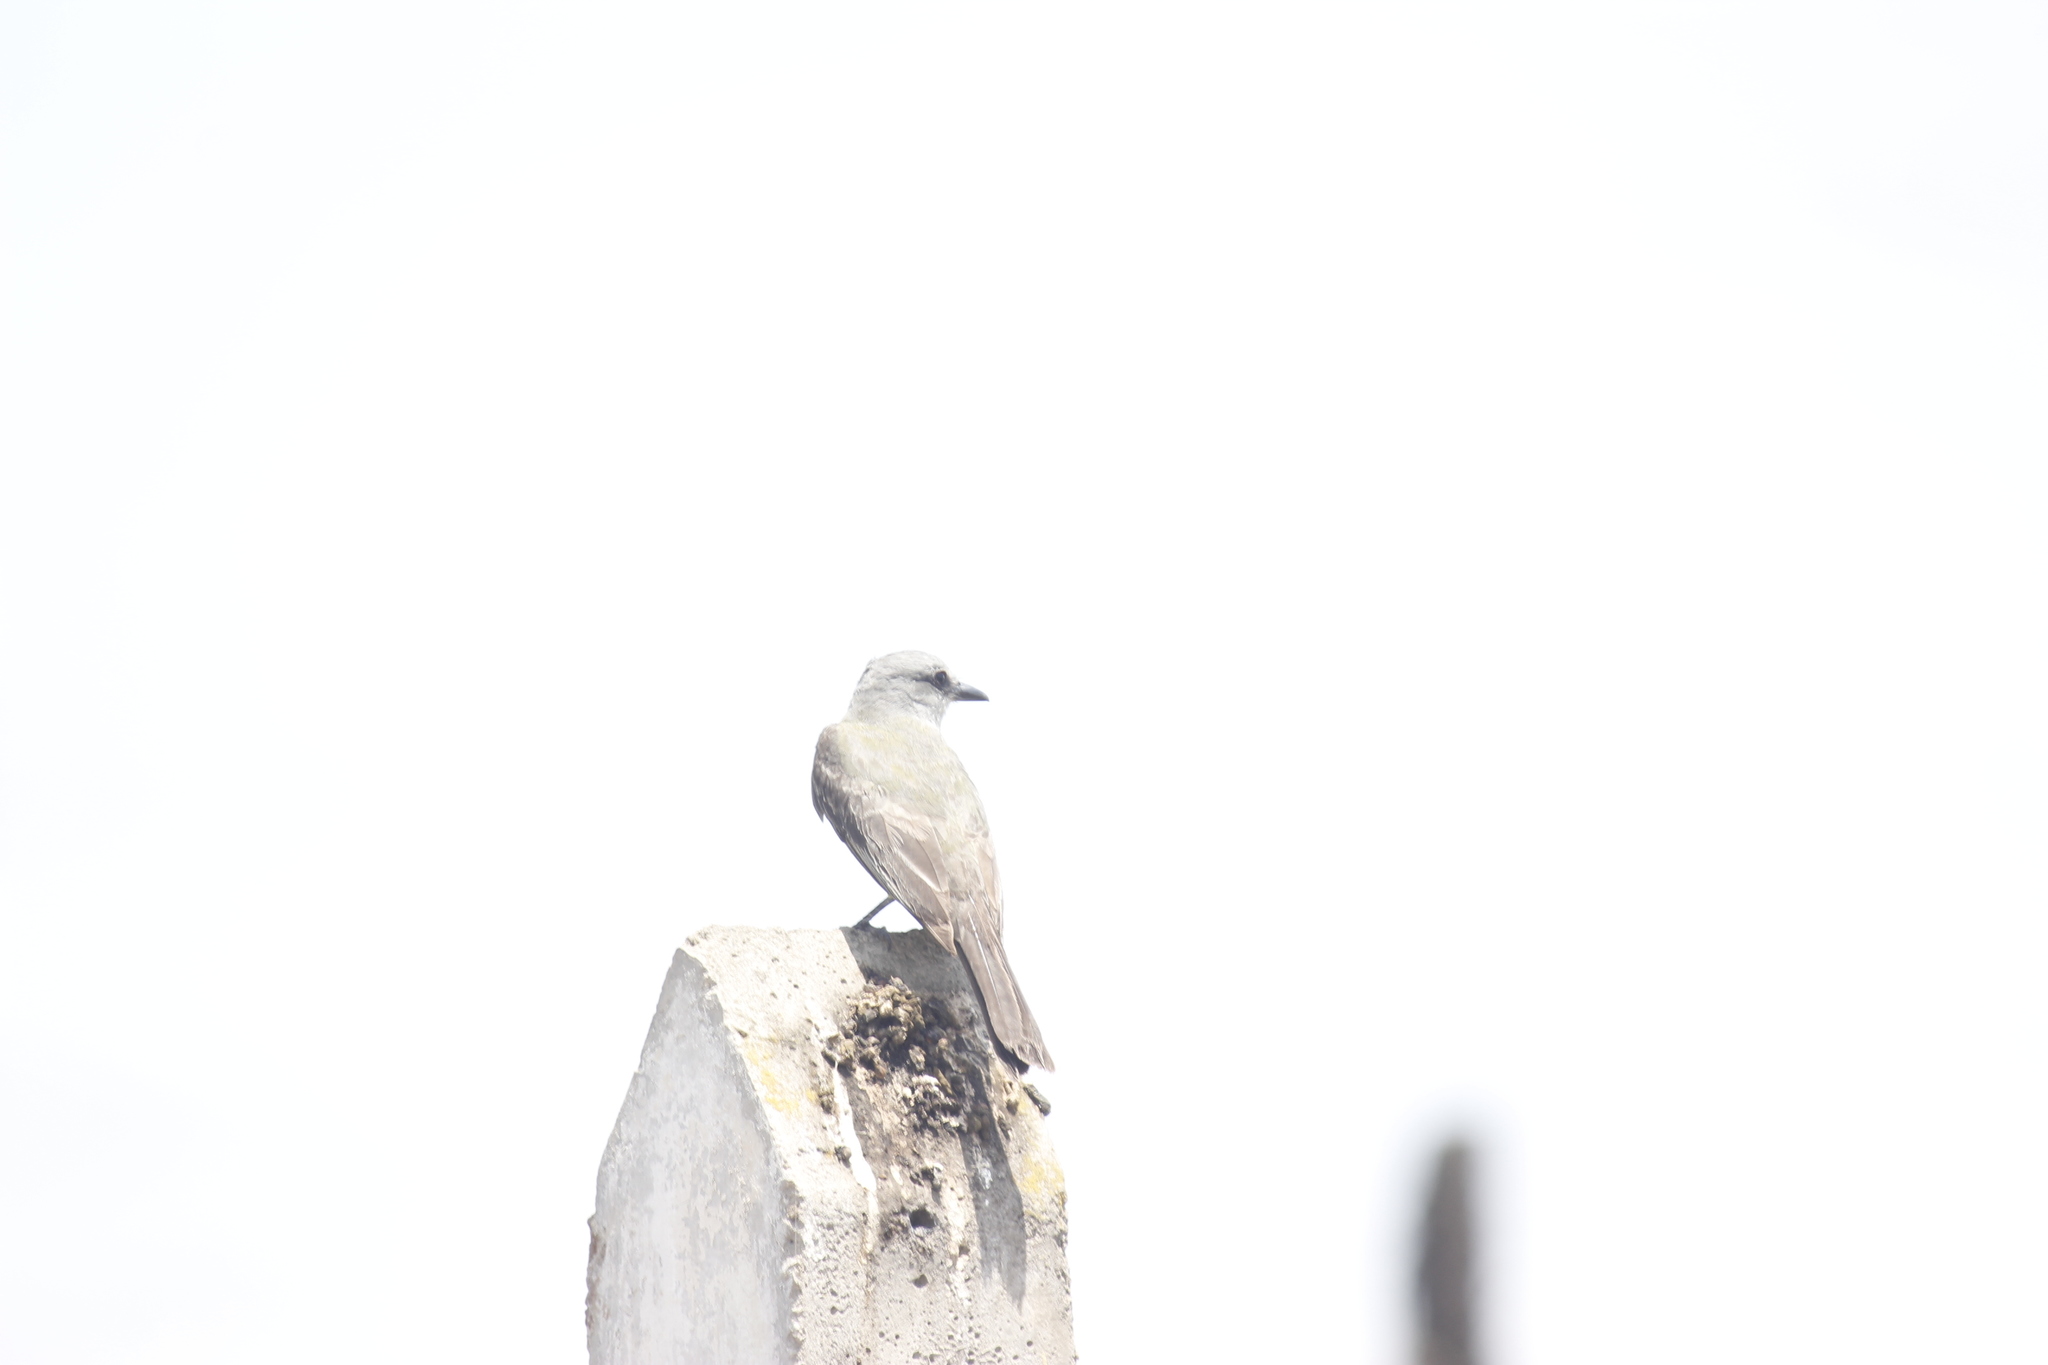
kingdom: Animalia
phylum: Chordata
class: Aves
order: Passeriformes
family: Tyrannidae
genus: Tyrannus
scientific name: Tyrannus melancholicus
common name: Tropical kingbird
